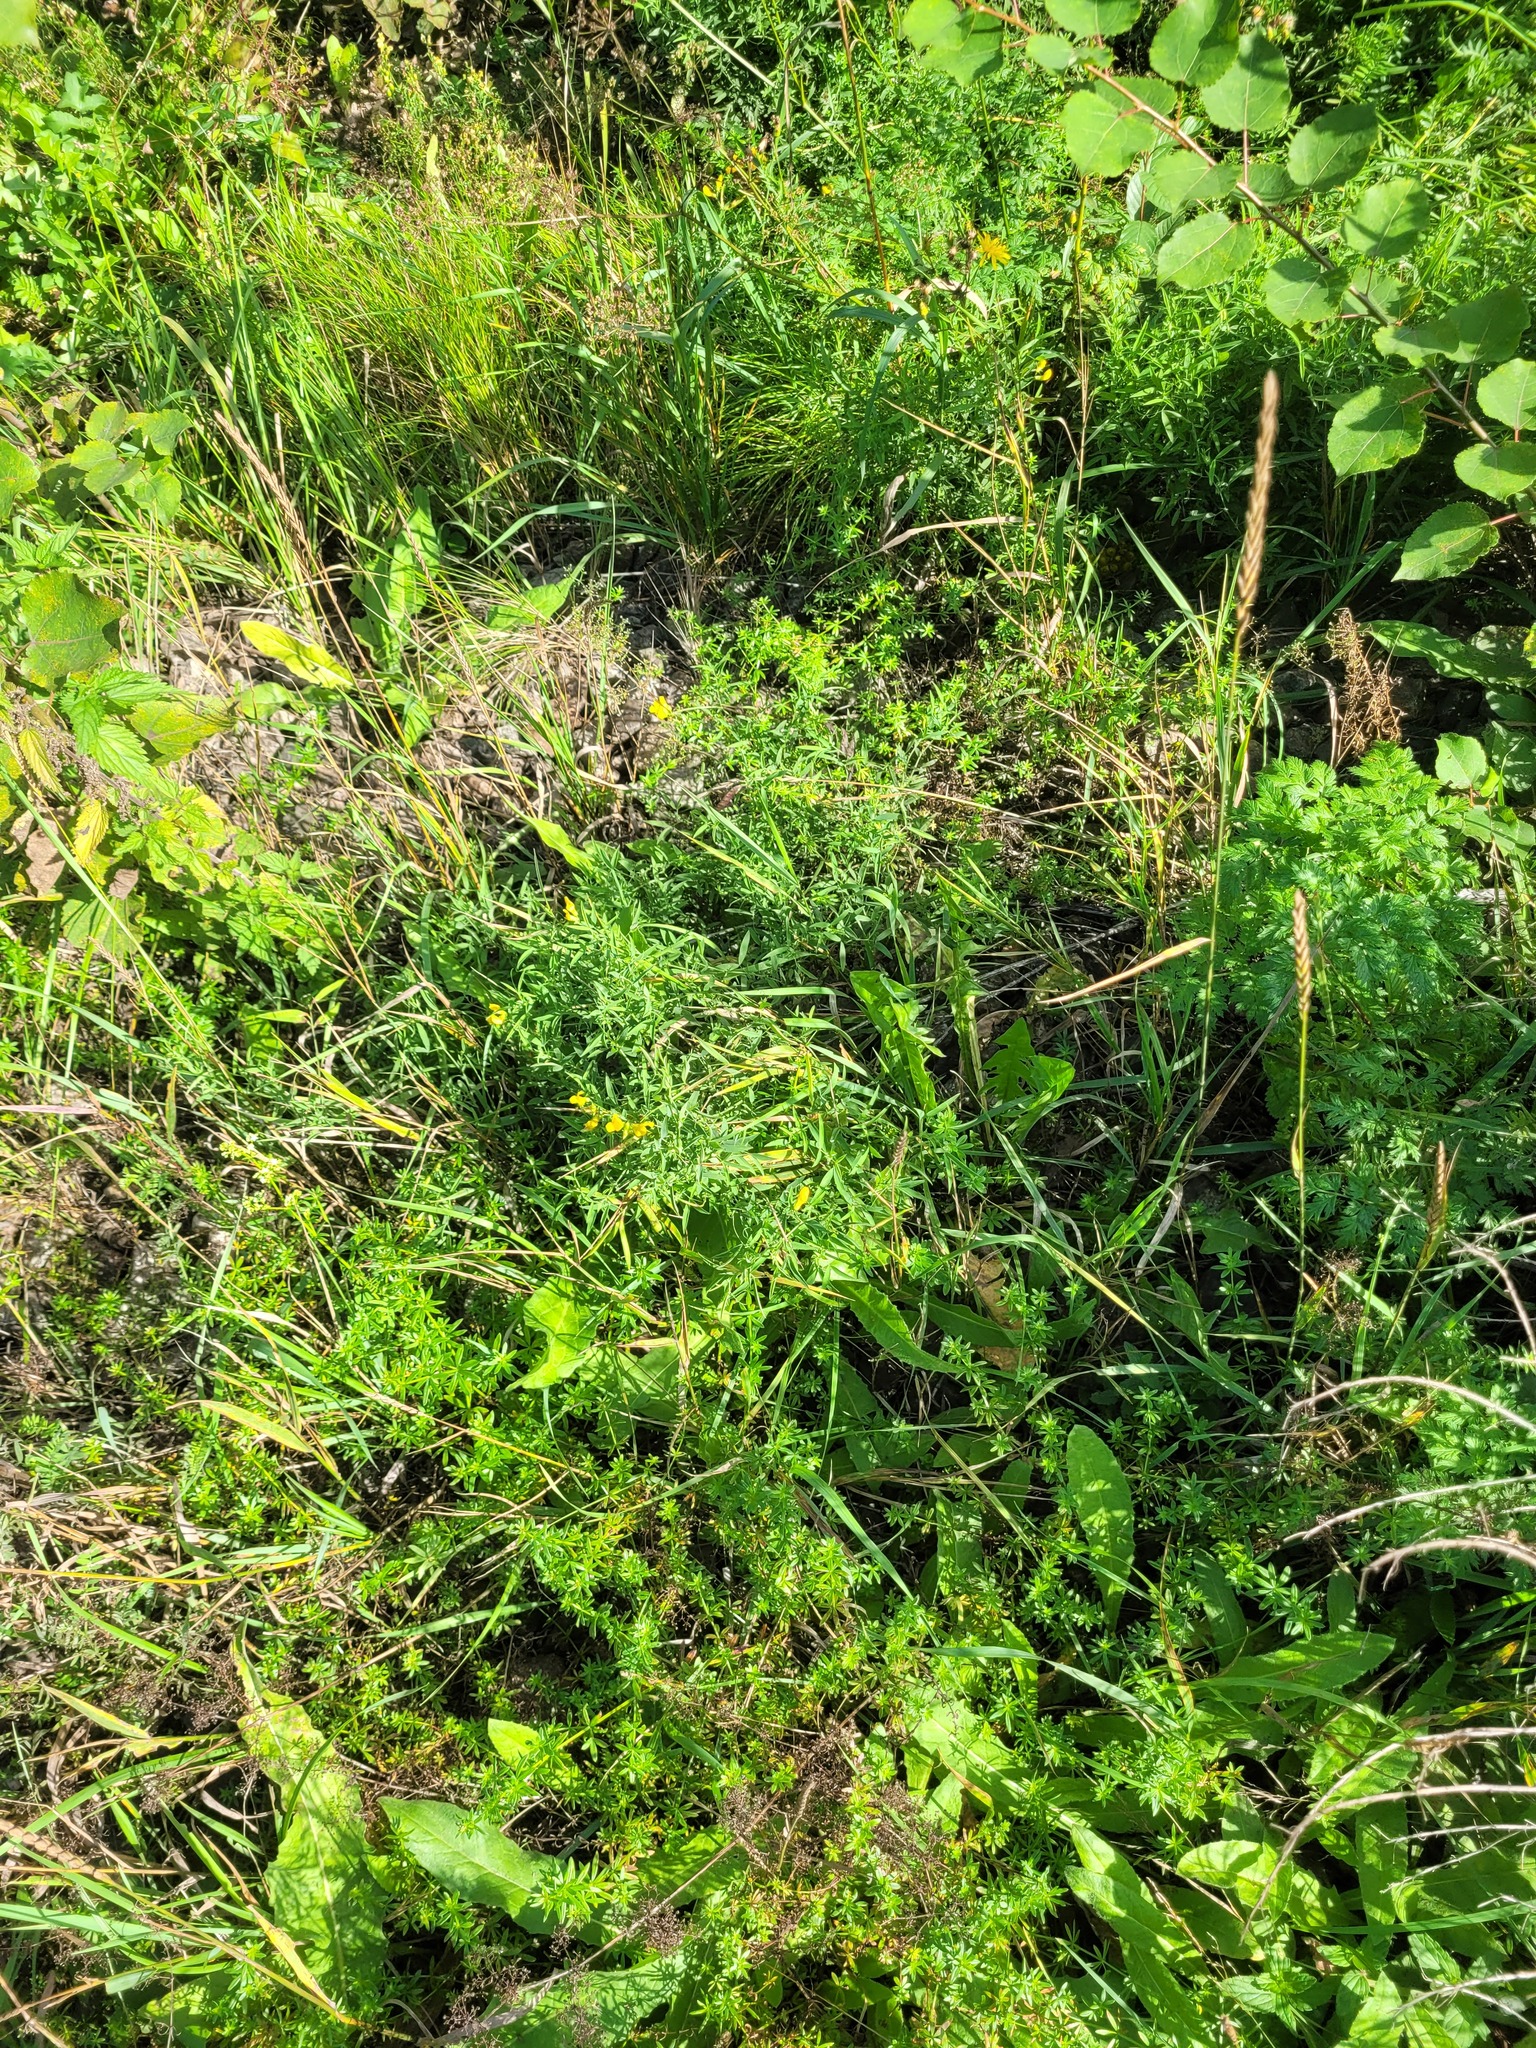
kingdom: Plantae
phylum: Tracheophyta
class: Magnoliopsida
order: Fabales
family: Fabaceae
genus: Lathyrus
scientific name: Lathyrus pratensis
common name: Meadow vetchling
